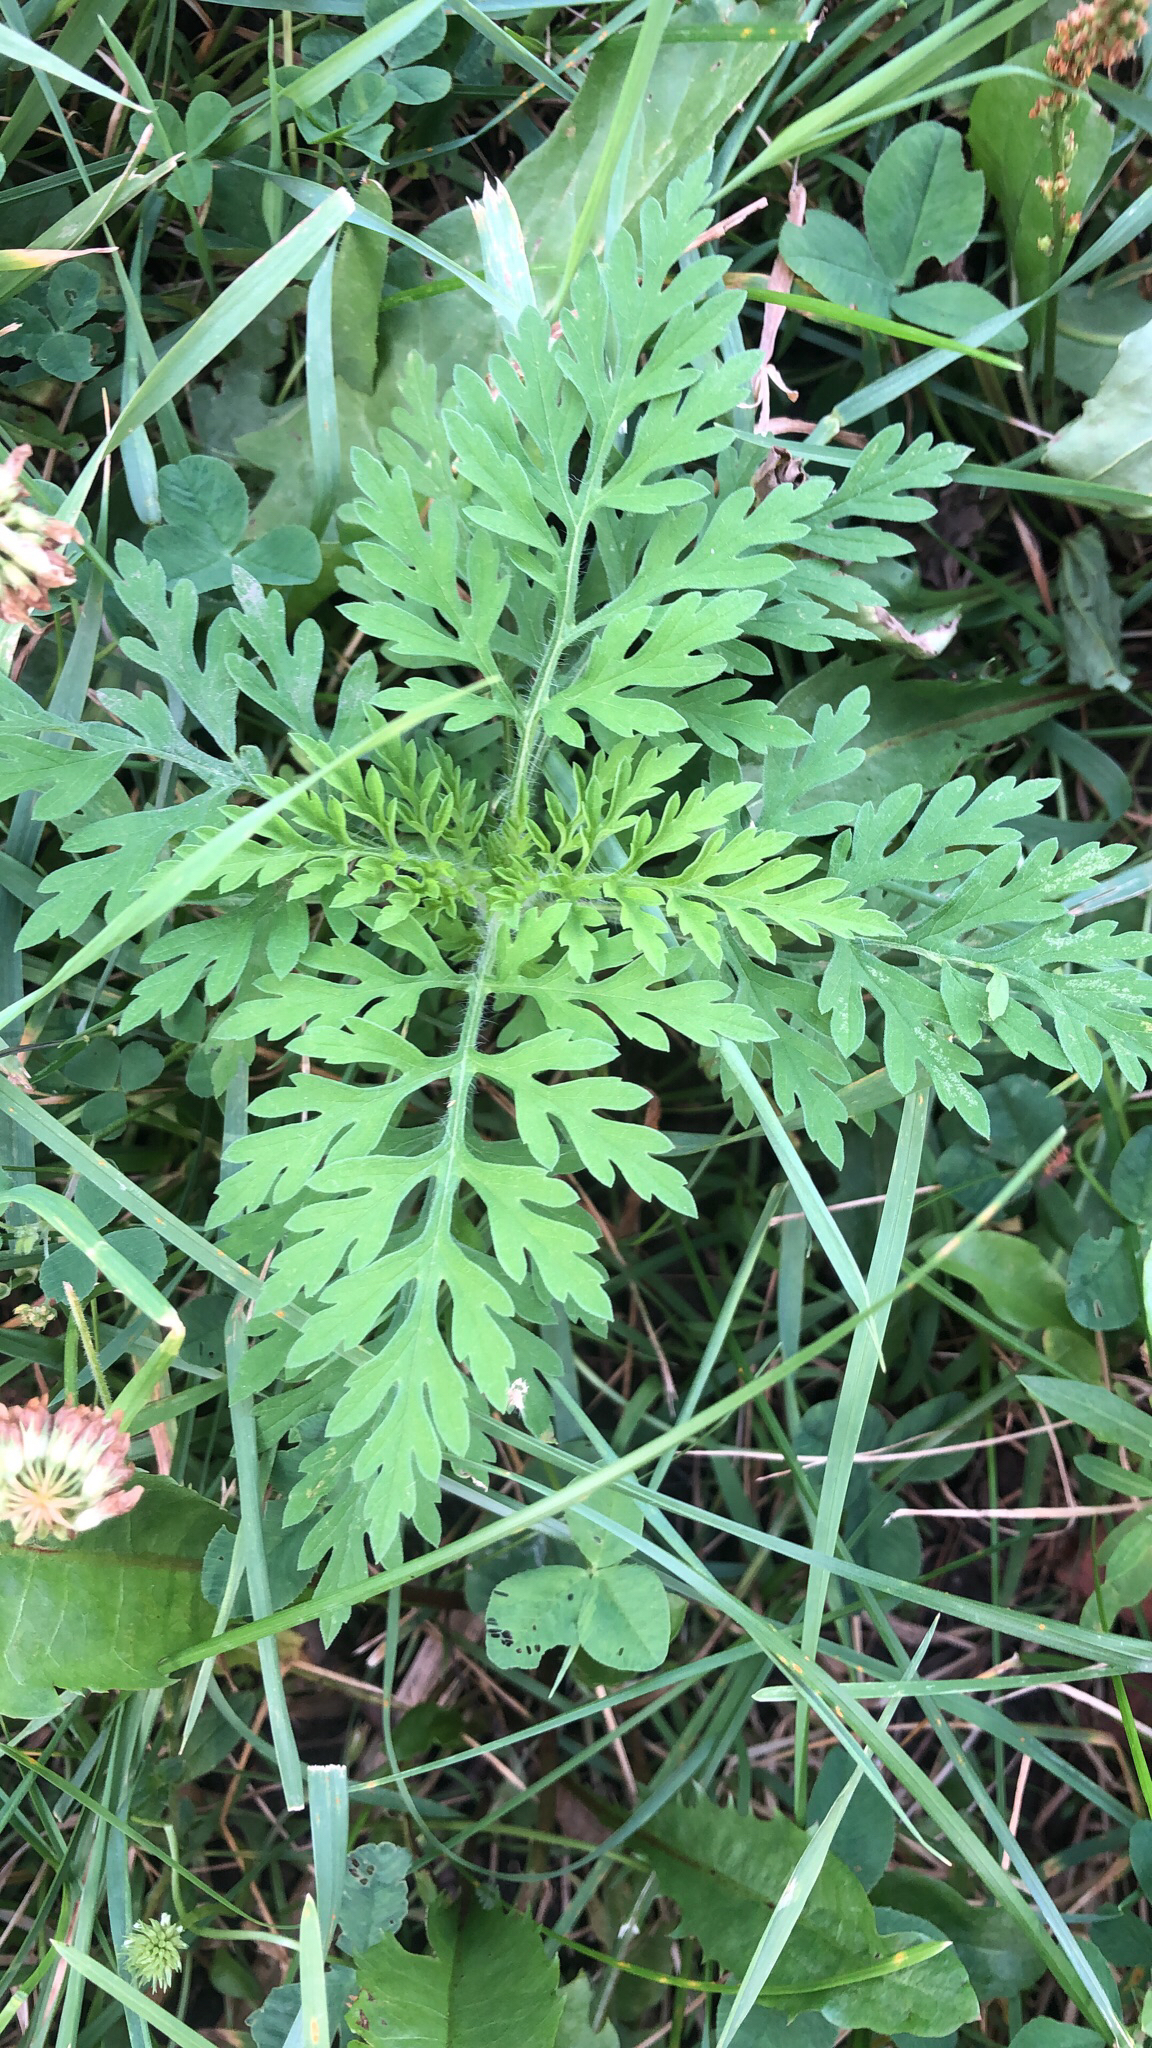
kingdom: Plantae
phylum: Tracheophyta
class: Magnoliopsida
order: Asterales
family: Asteraceae
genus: Ambrosia
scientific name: Ambrosia artemisiifolia
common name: Annual ragweed
